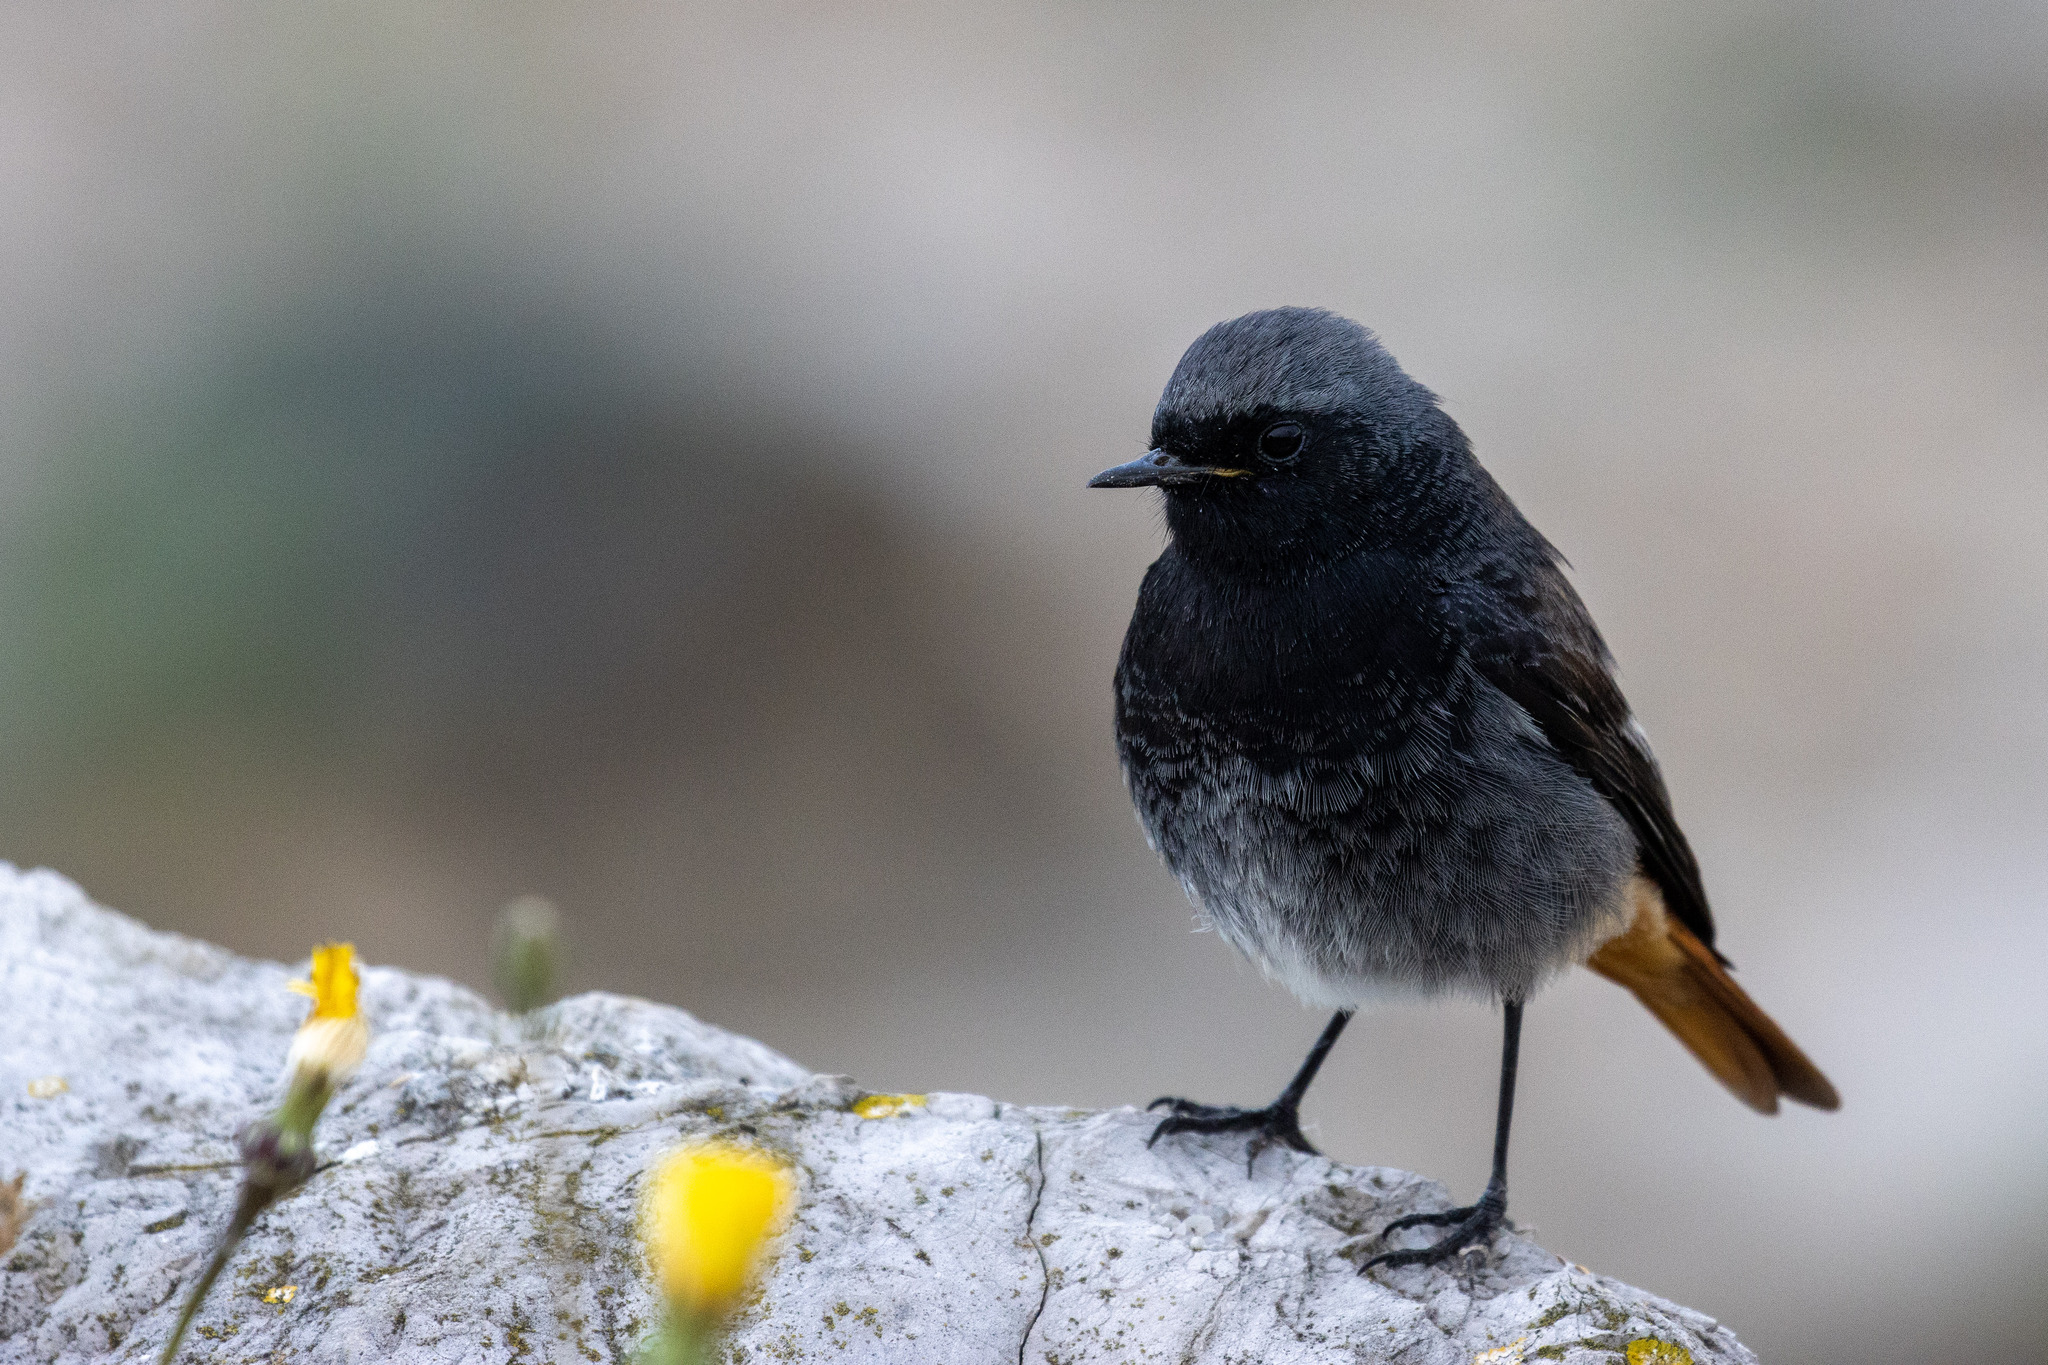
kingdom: Animalia
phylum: Chordata
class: Aves
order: Passeriformes
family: Muscicapidae
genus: Phoenicurus
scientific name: Phoenicurus ochruros
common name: Black redstart
